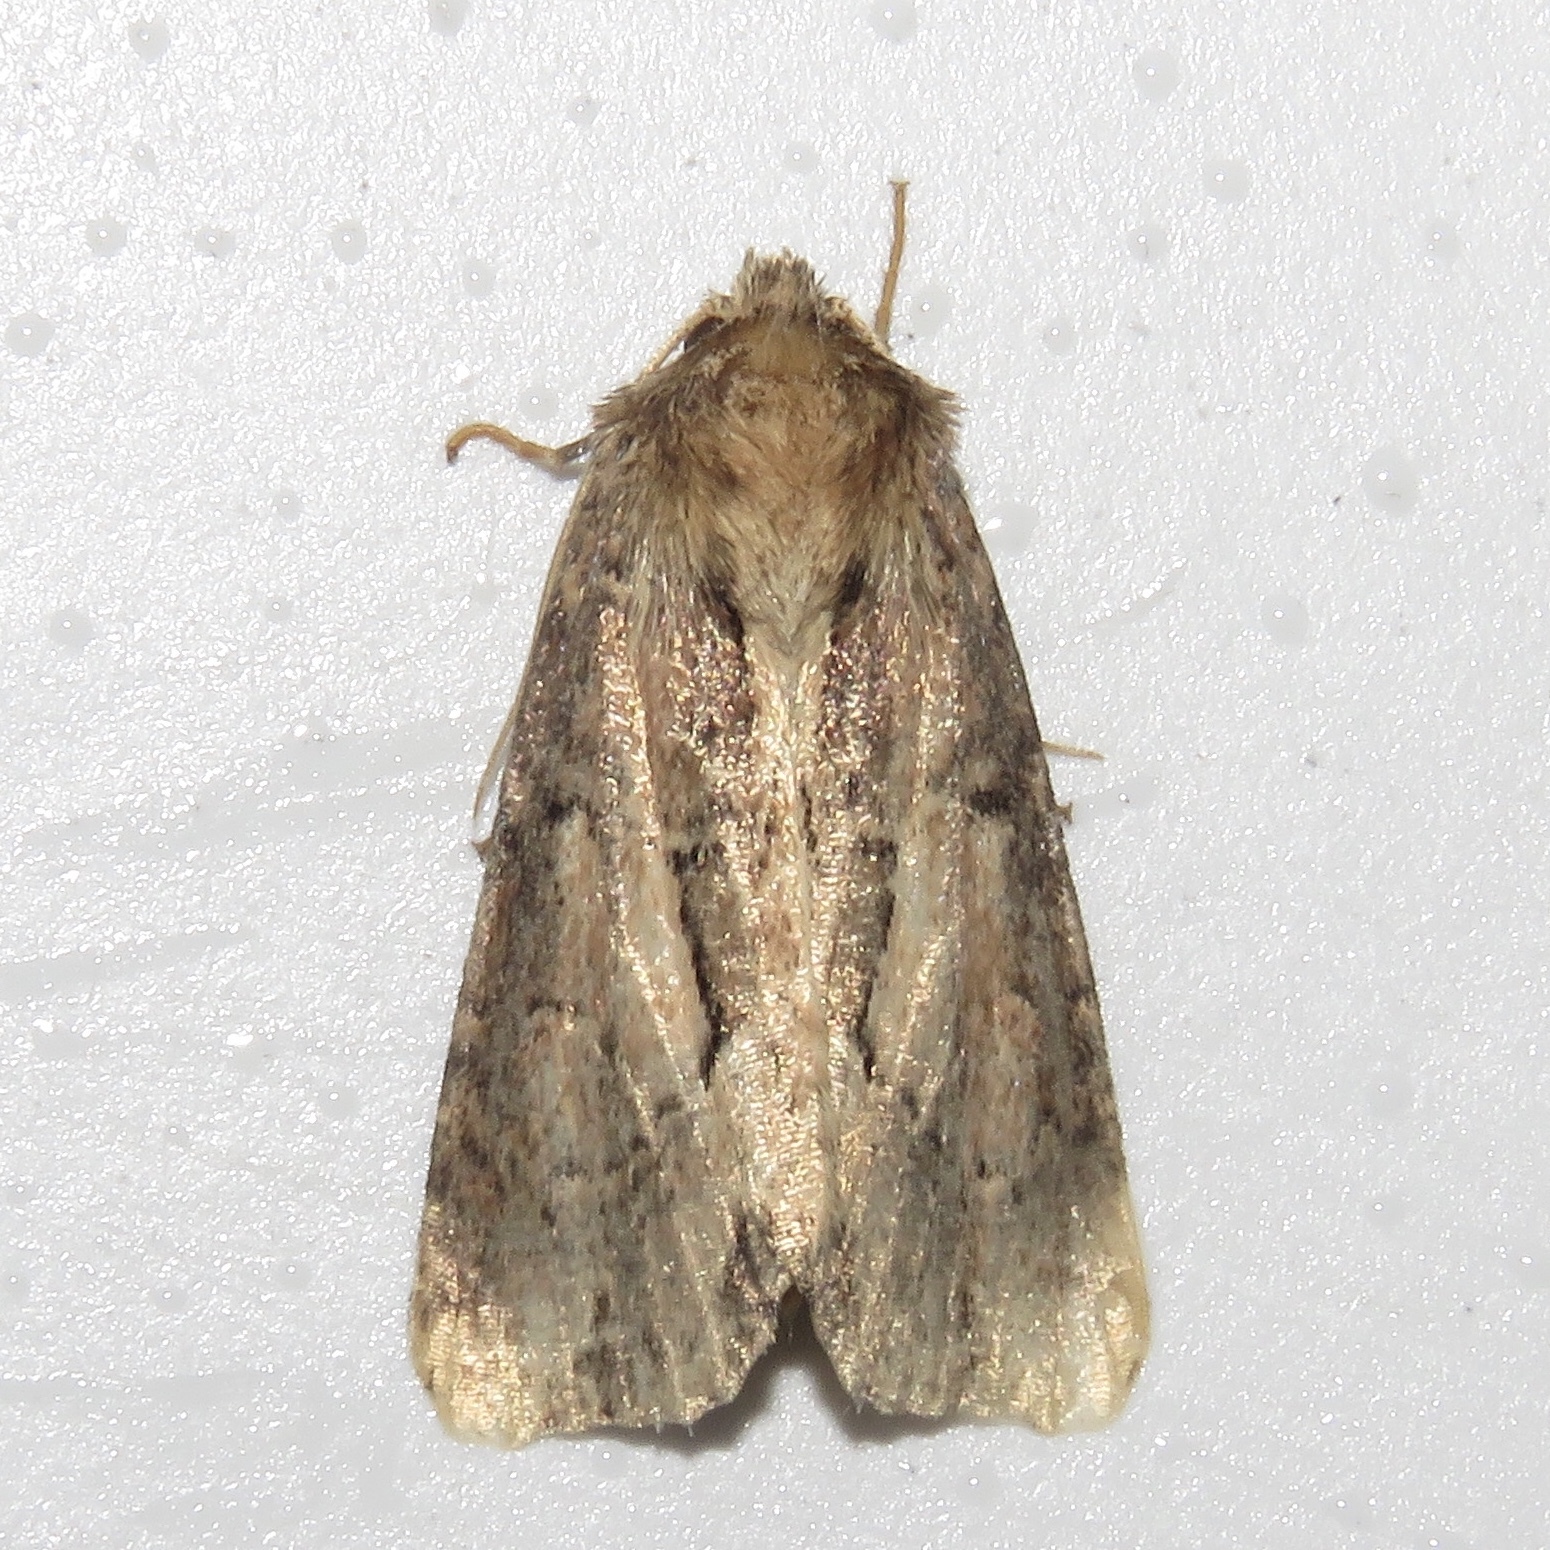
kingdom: Animalia
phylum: Arthropoda
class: Insecta
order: Lepidoptera
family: Noctuidae
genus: Xylomoia
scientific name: Xylomoia chagnoni
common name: Reed canary grass borer moth
